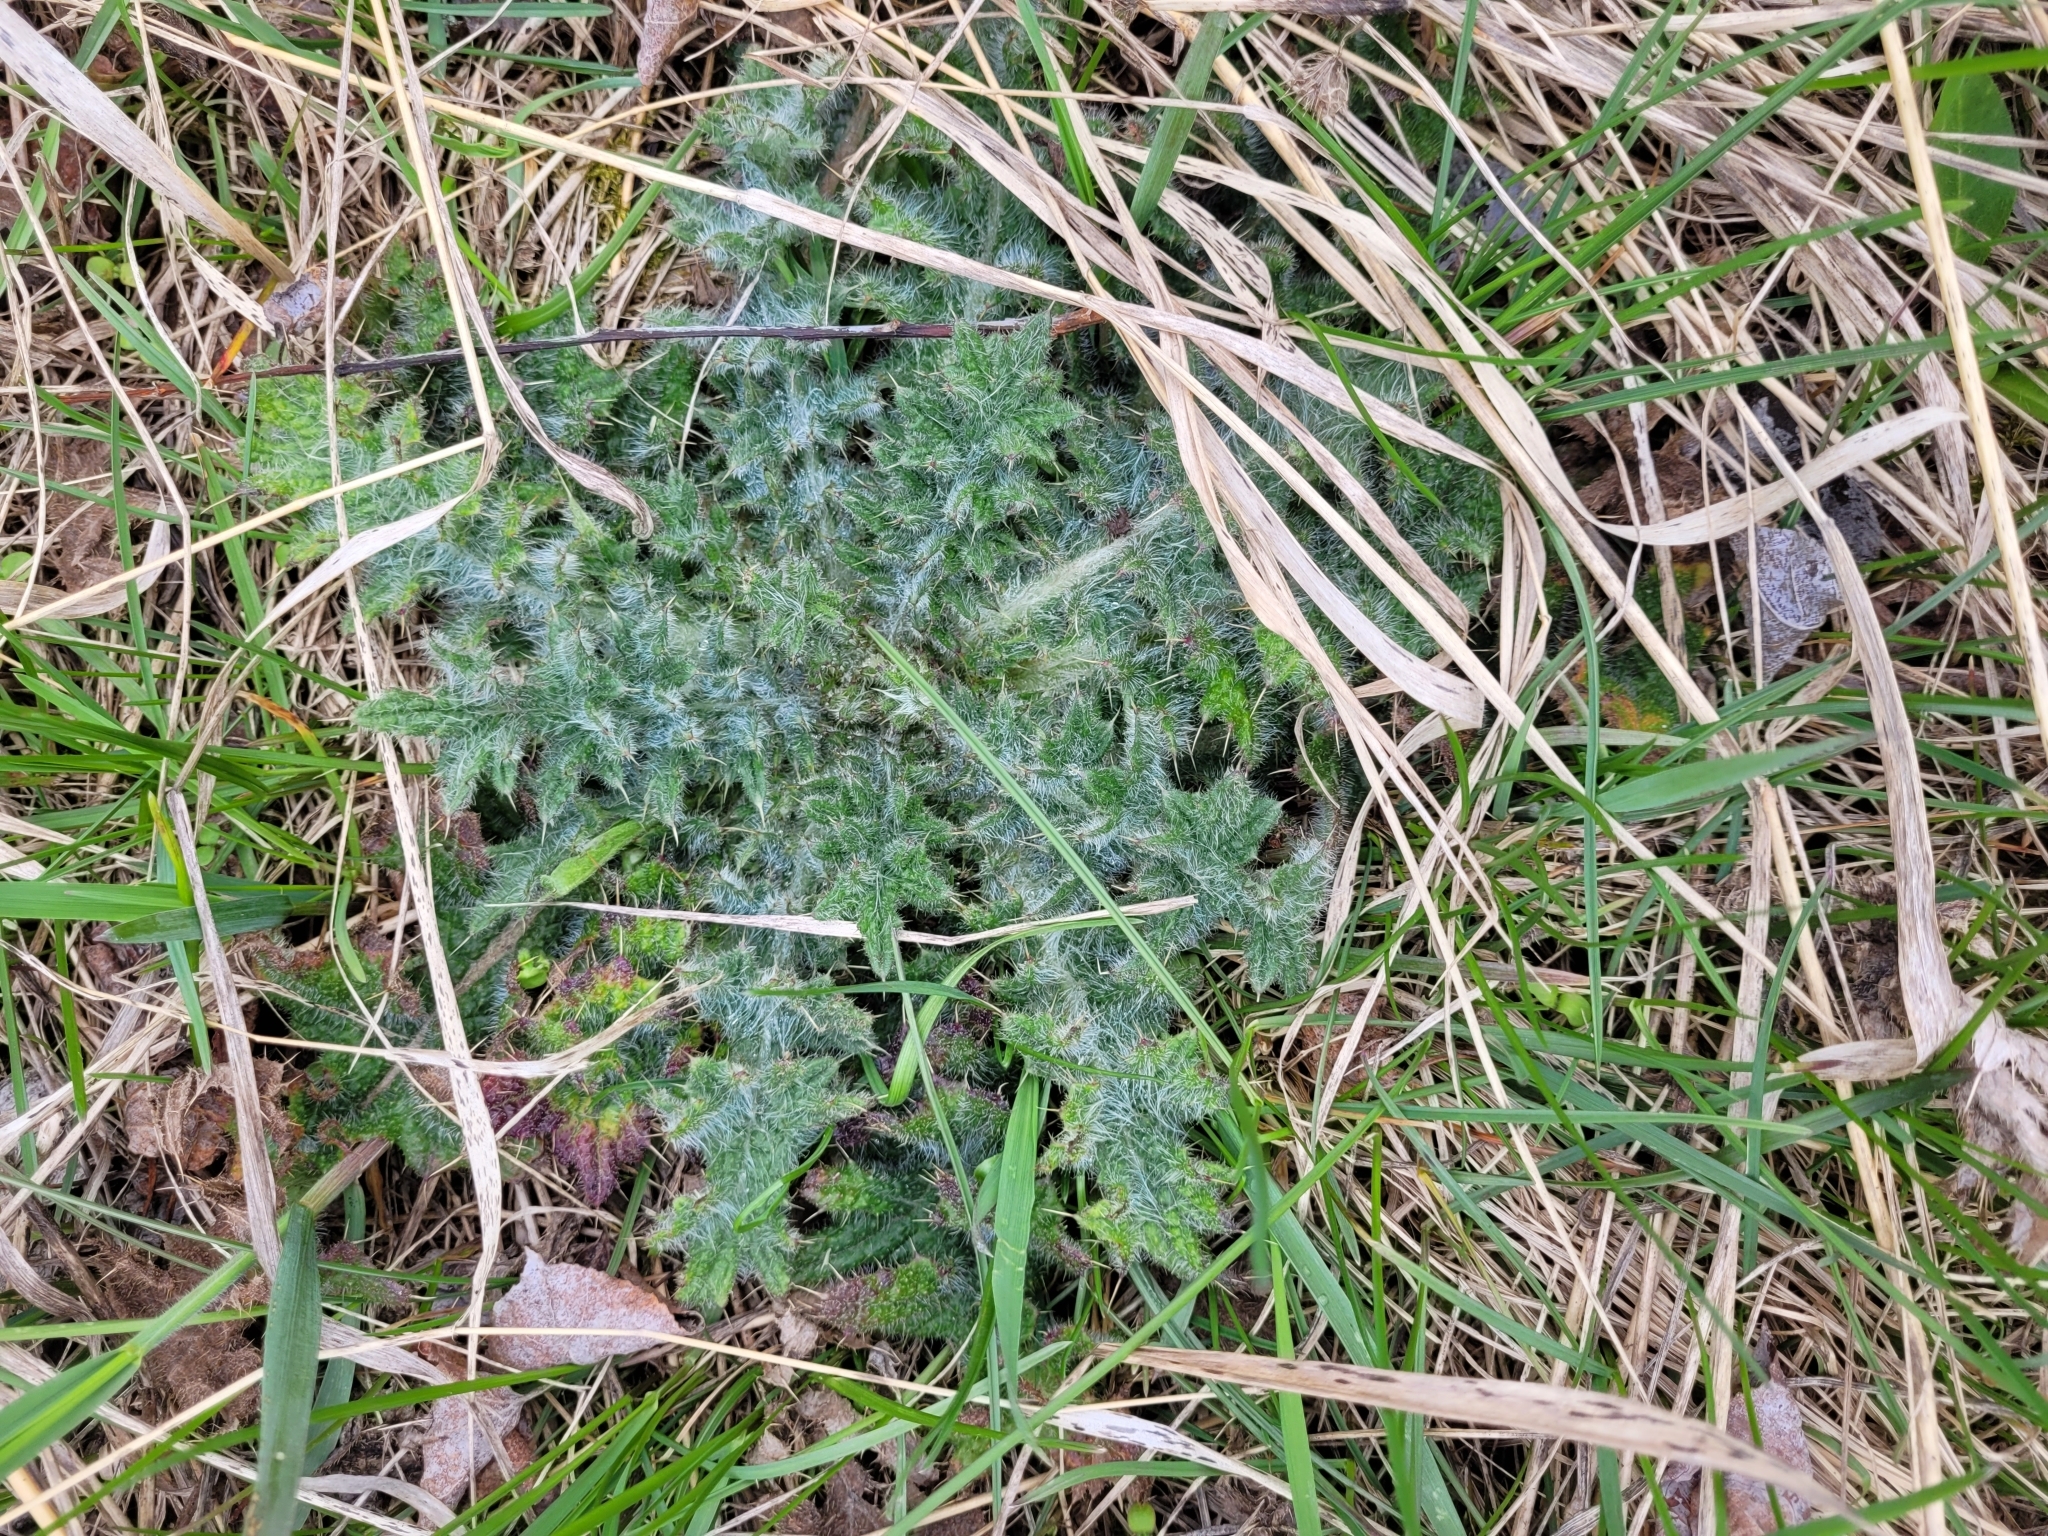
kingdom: Plantae
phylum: Tracheophyta
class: Magnoliopsida
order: Asterales
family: Asteraceae
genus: Cirsium
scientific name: Cirsium vulgare
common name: Bull thistle
